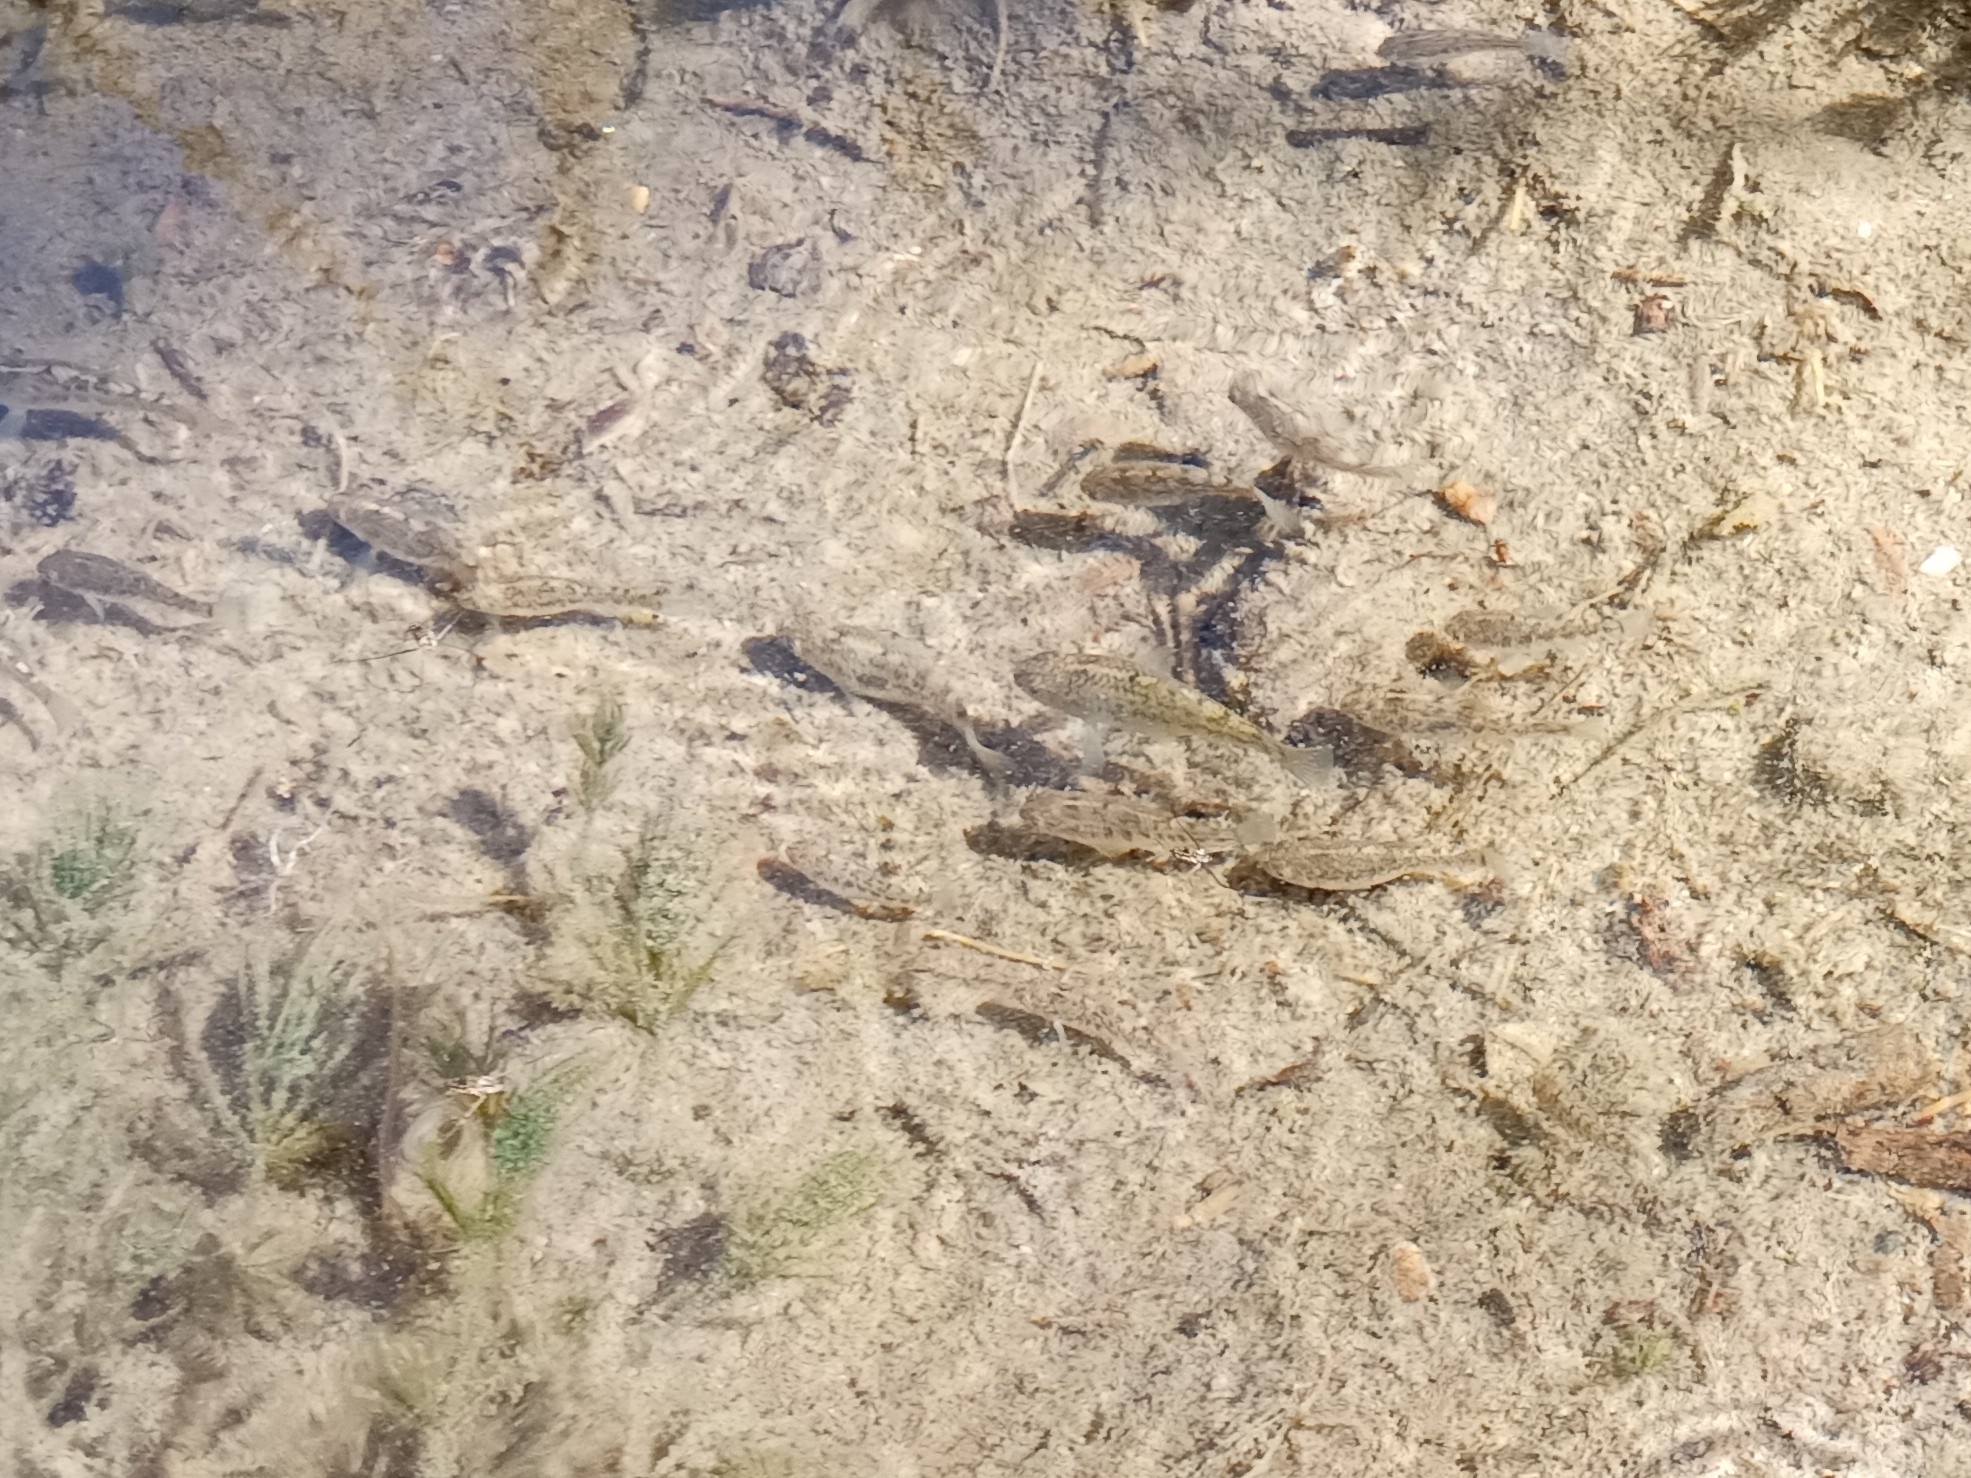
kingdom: Animalia
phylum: Chordata
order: Cyprinodontiformes
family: Cyprinodontidae
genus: Cyprinodon
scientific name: Cyprinodon eremus
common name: Sonoyta pupfish
